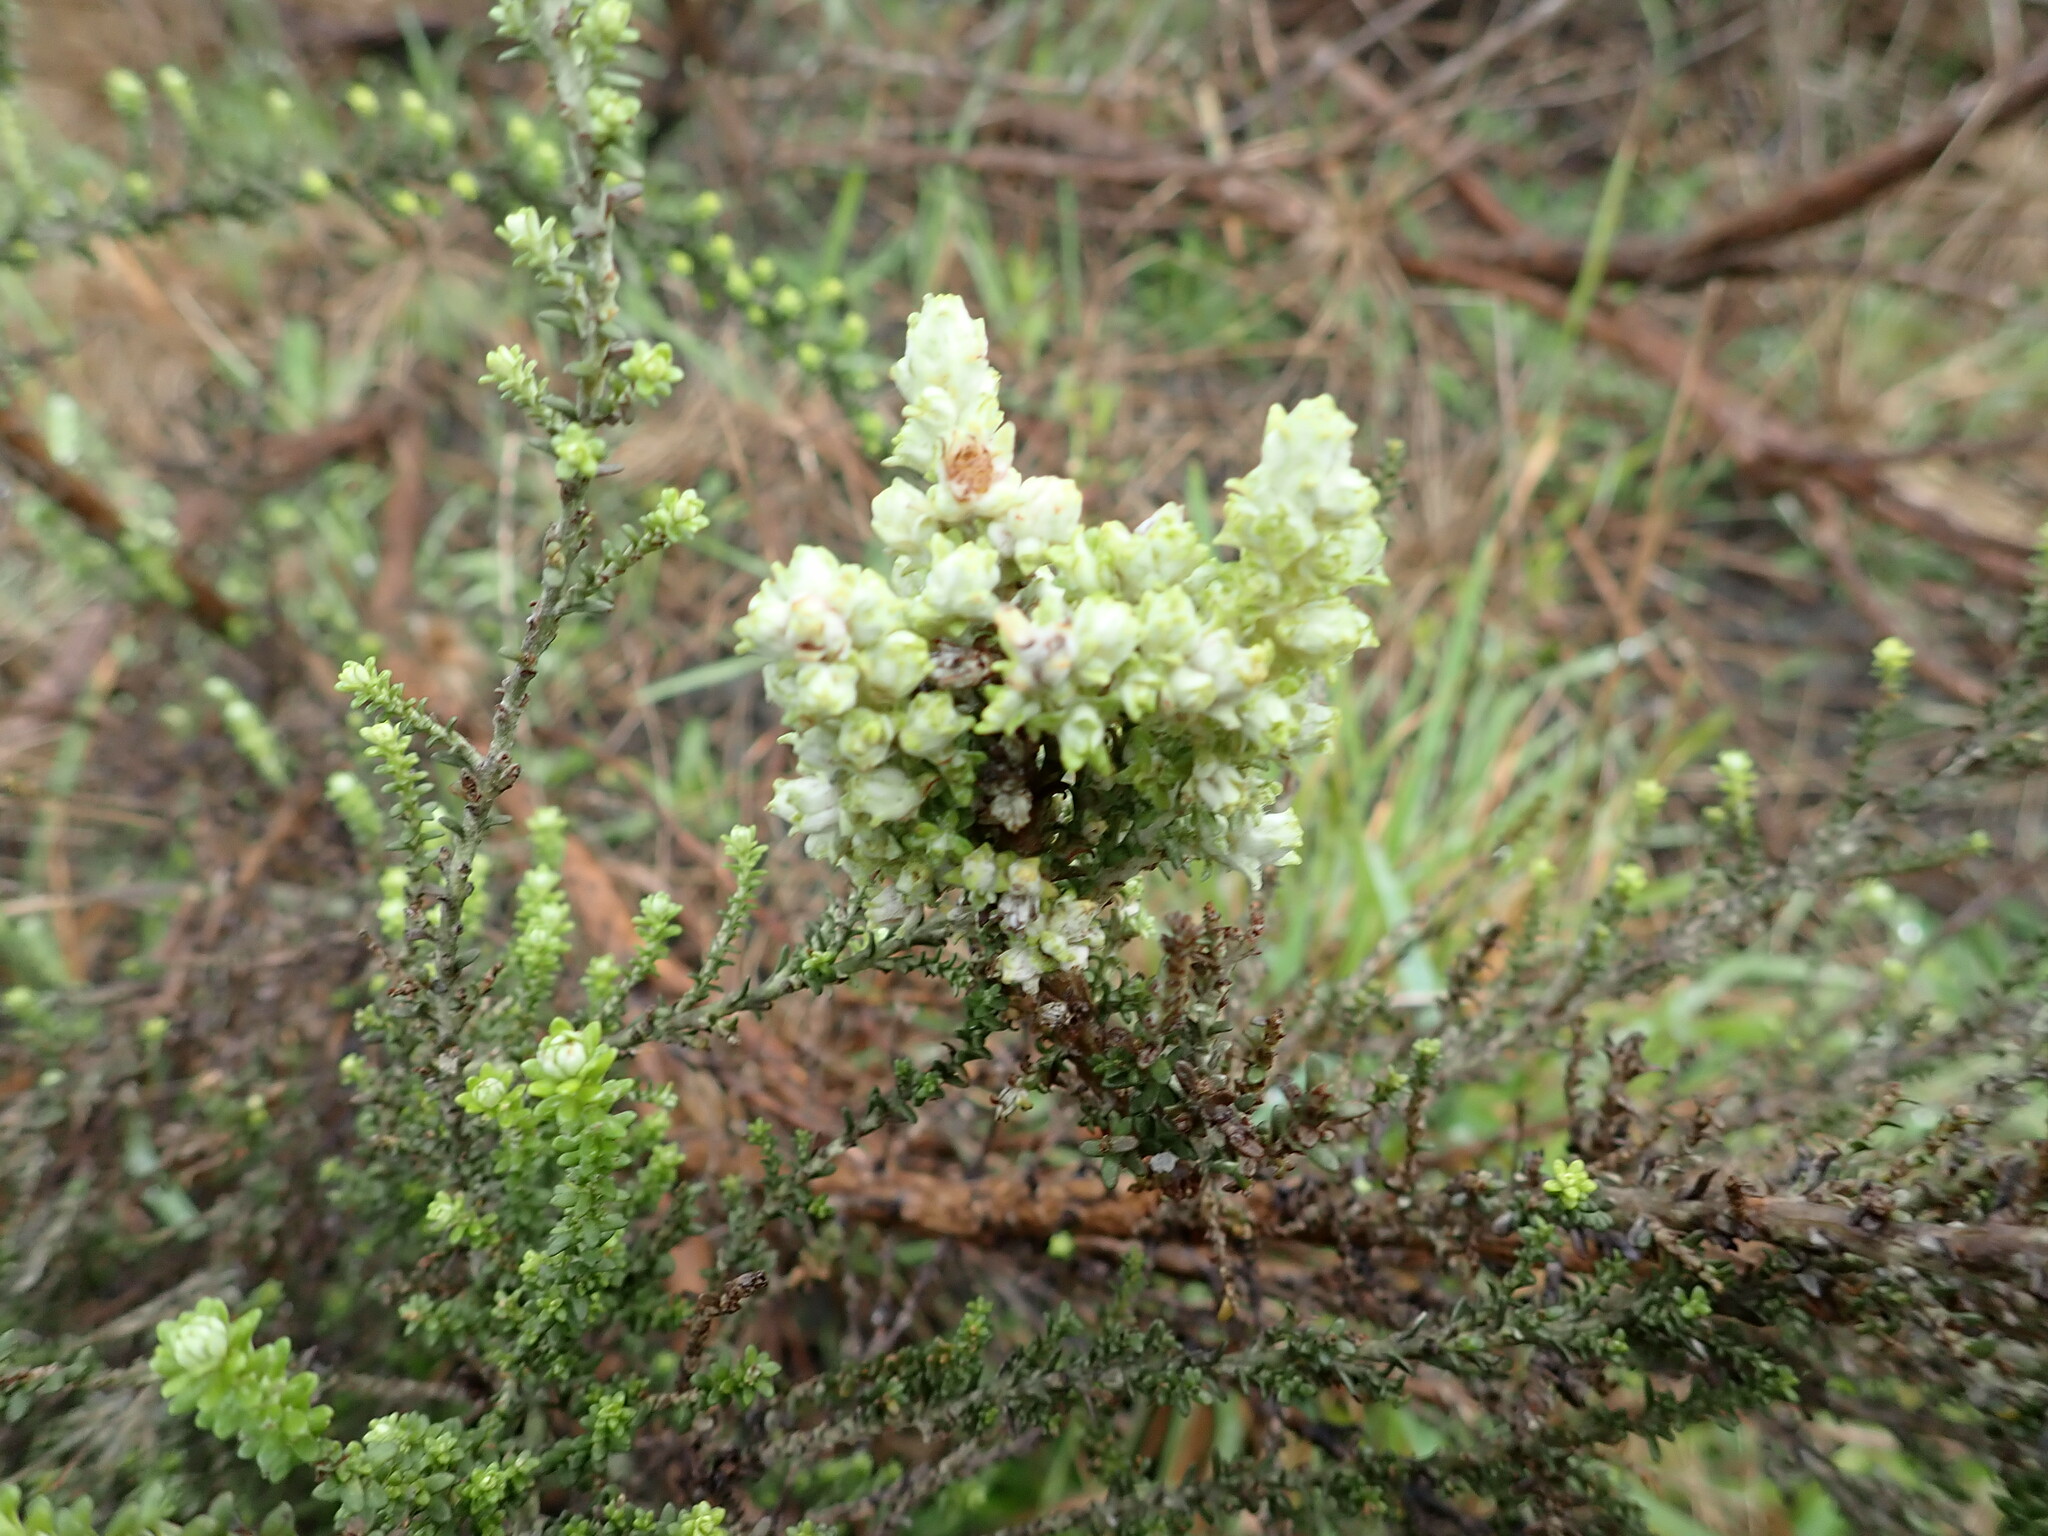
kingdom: Plantae
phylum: Tracheophyta
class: Magnoliopsida
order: Asterales
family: Asteraceae
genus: Ozothamnus
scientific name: Ozothamnus leptophyllus
